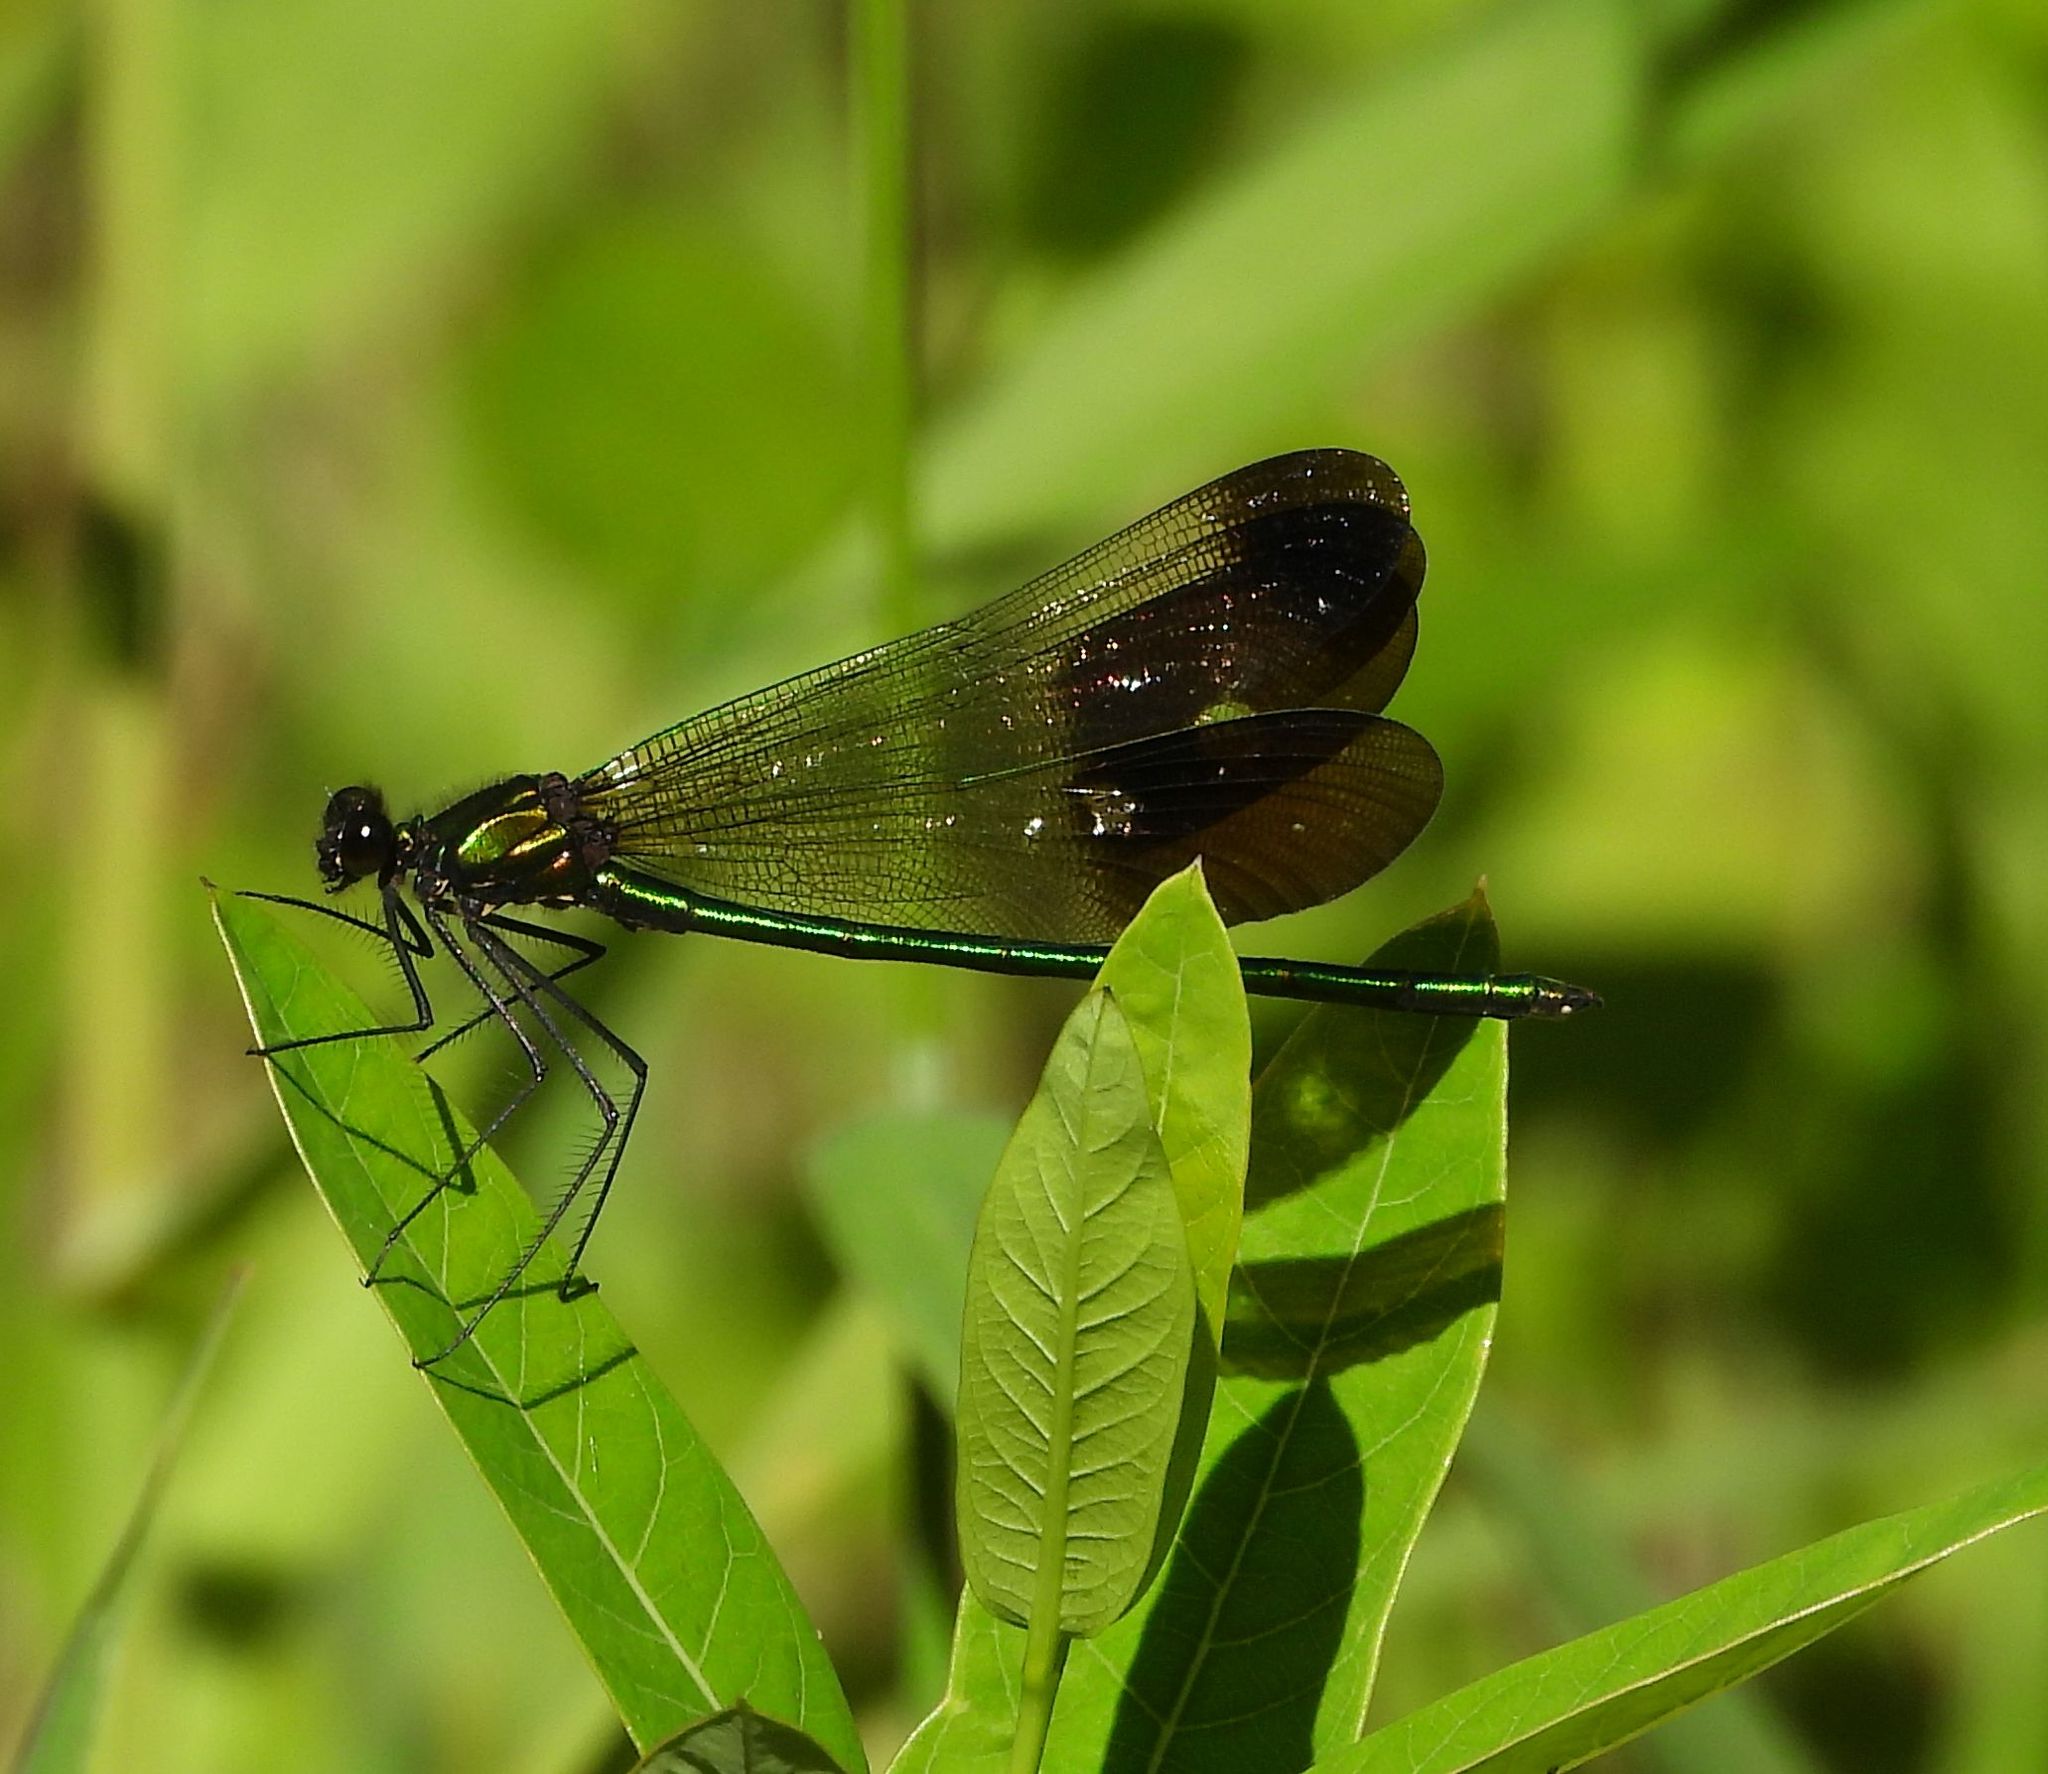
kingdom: Animalia
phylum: Arthropoda
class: Insecta
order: Odonata
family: Calopterygidae
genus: Calopteryx
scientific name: Calopteryx aequabilis
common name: River jewelwing
